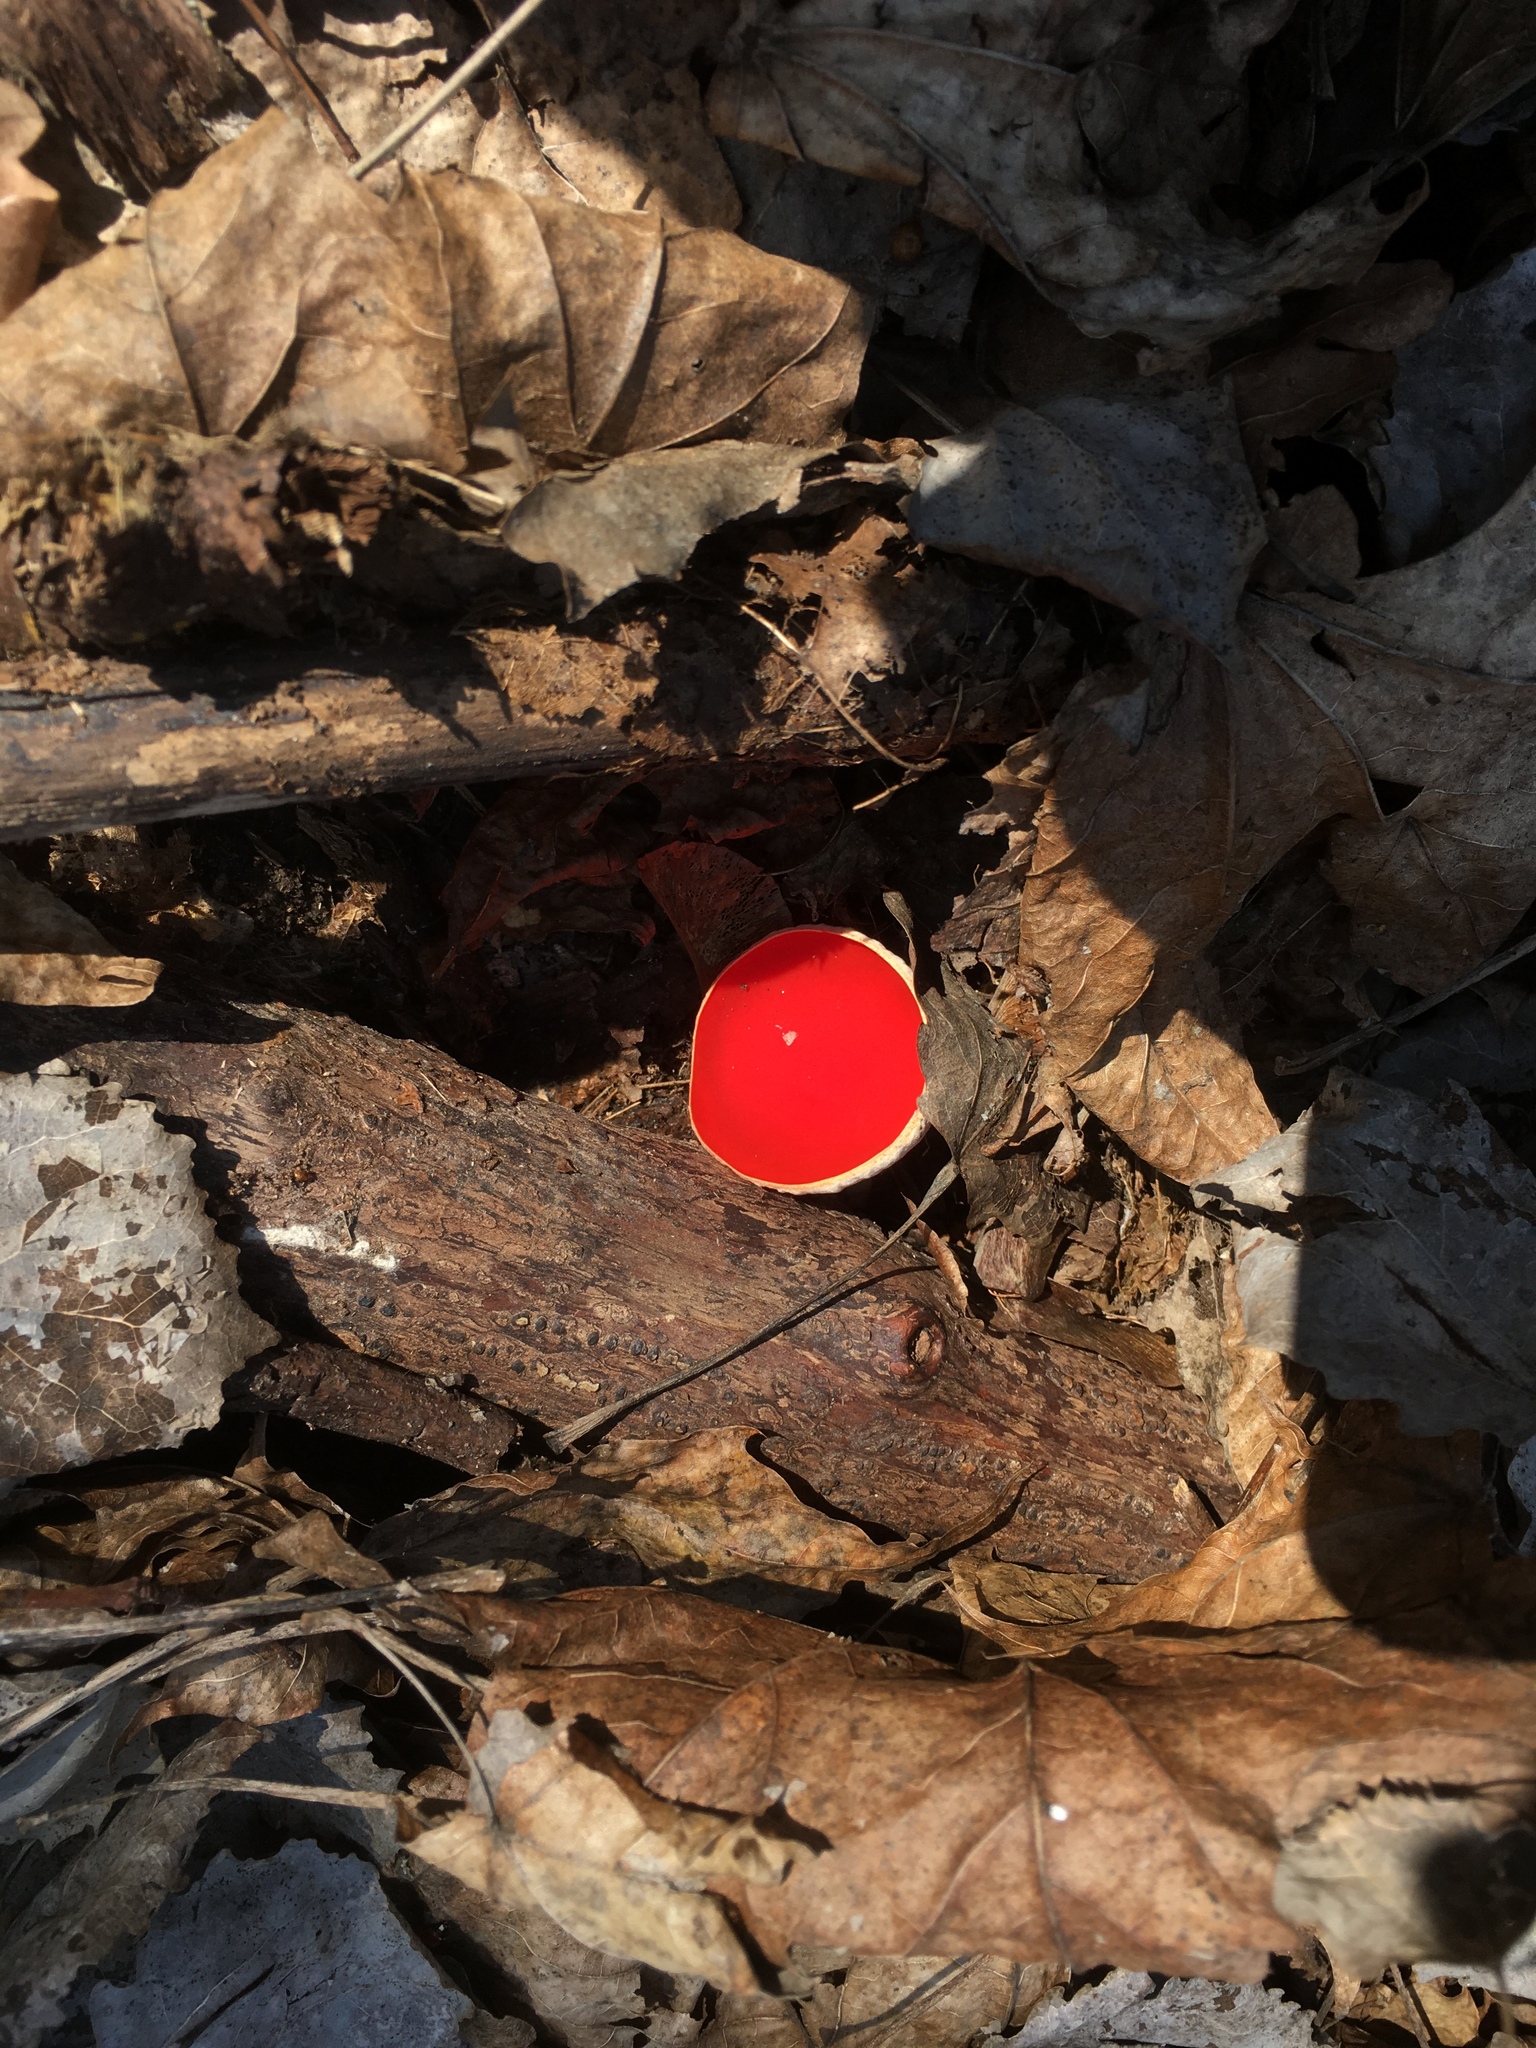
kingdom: Fungi
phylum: Ascomycota
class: Pezizomycetes
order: Pezizales
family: Sarcoscyphaceae
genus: Sarcoscypha
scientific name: Sarcoscypha austriaca
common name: Scarlet elfcup
